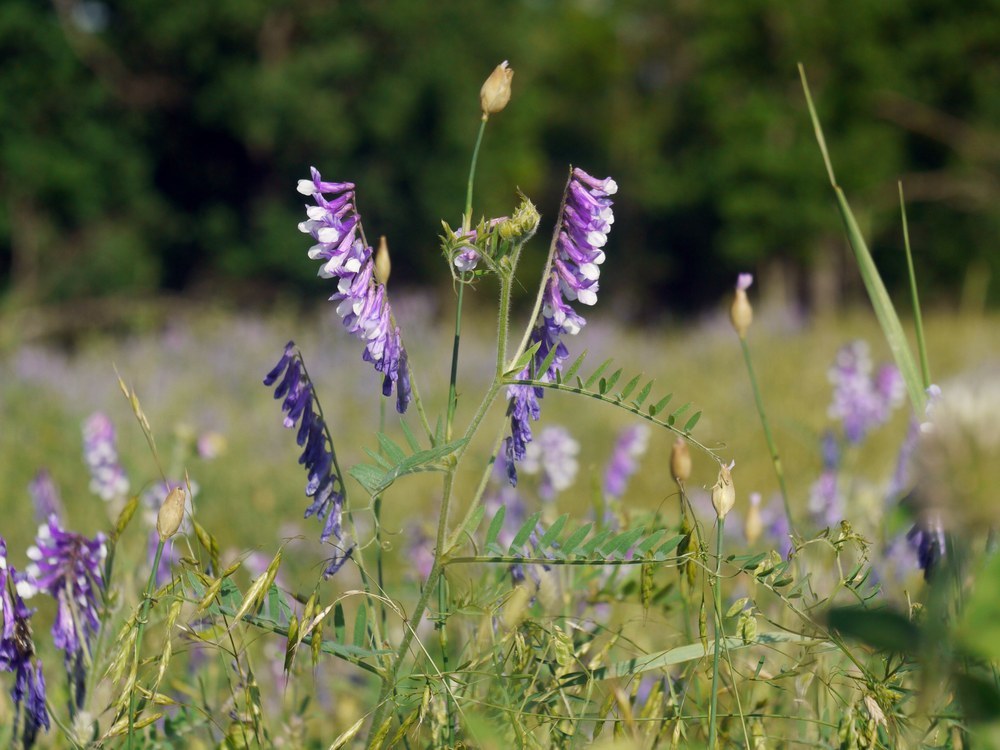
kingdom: Plantae
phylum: Tracheophyta
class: Magnoliopsida
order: Fabales
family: Fabaceae
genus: Vicia
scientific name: Vicia villosa
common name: Fodder vetch
